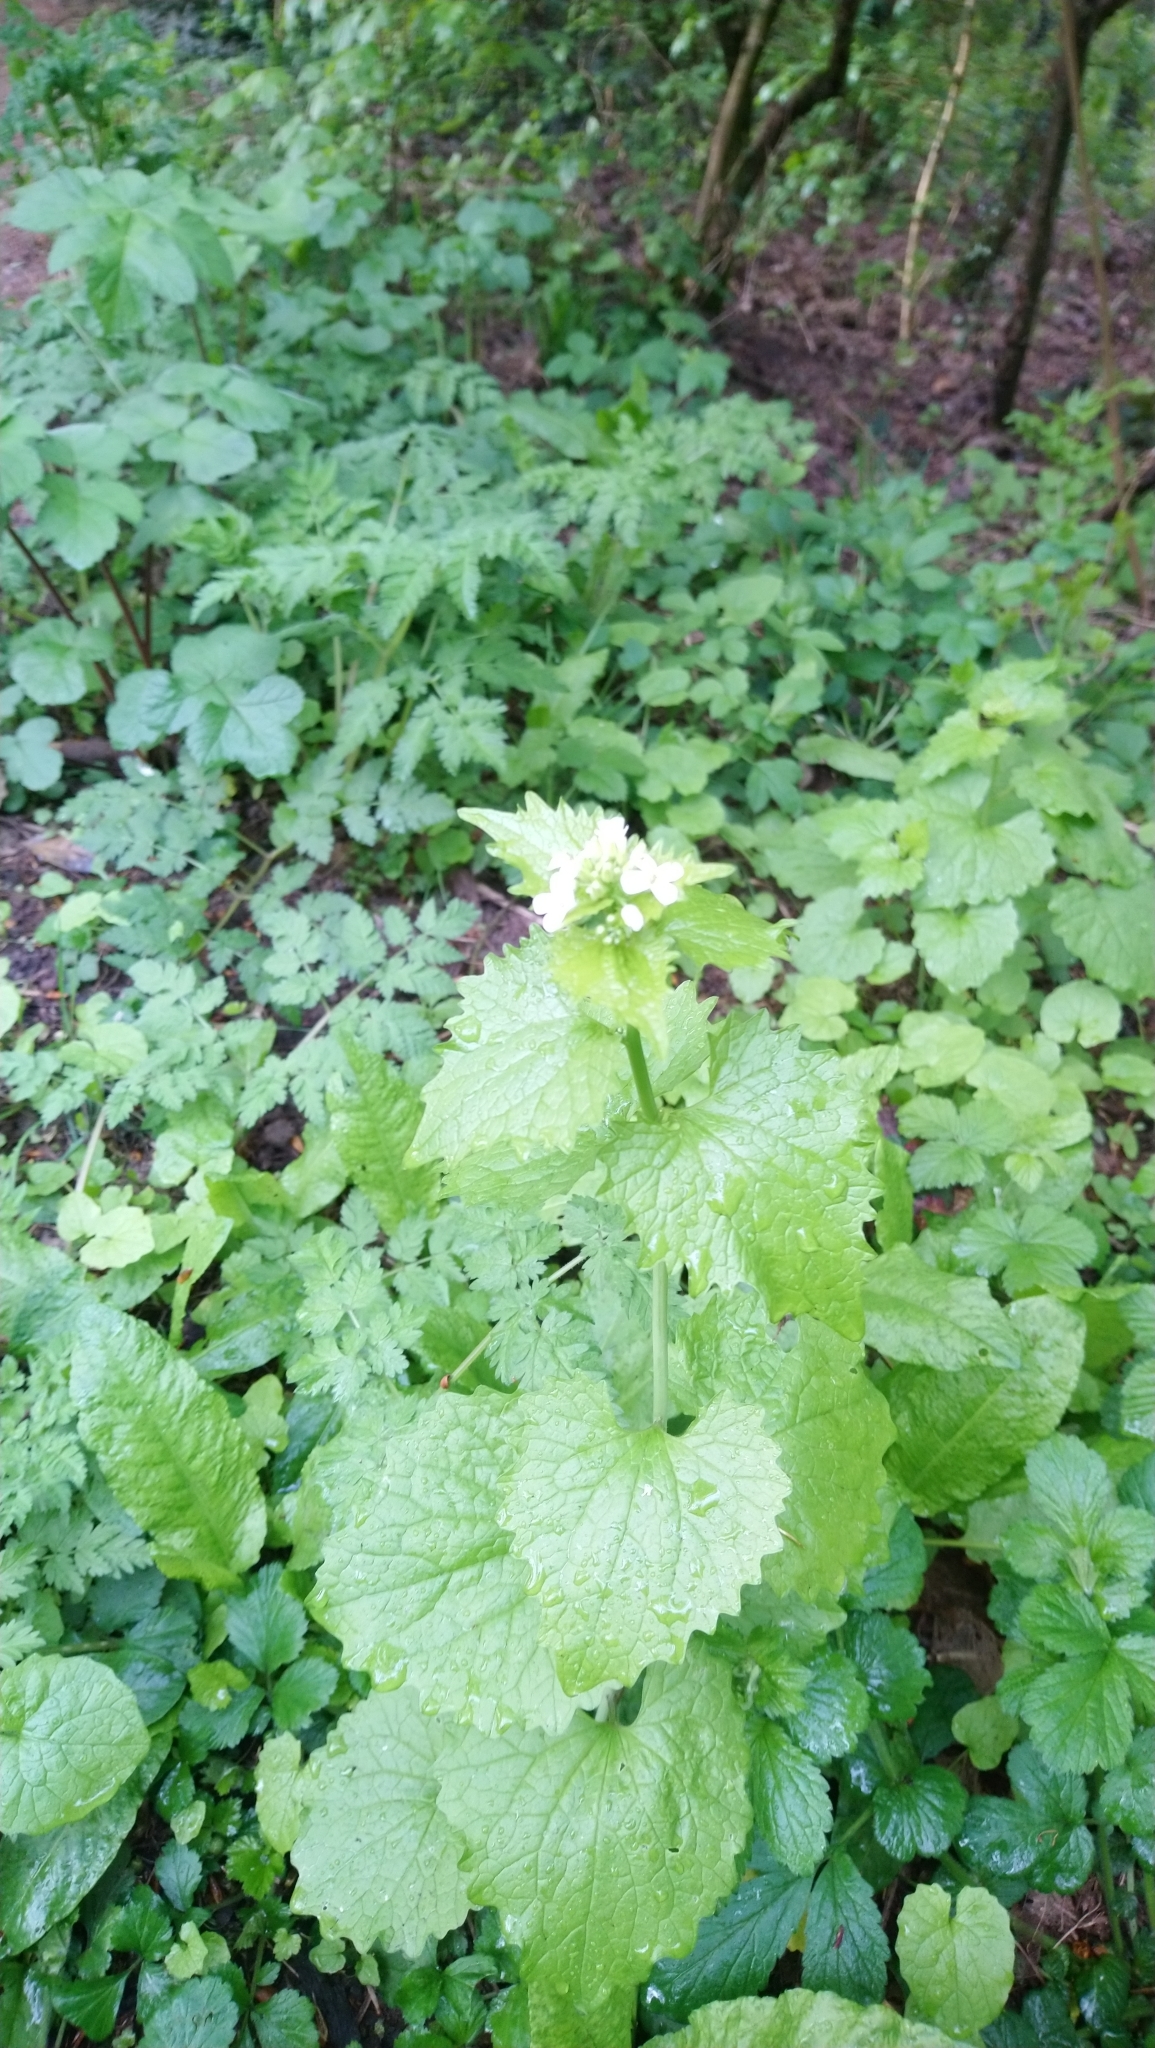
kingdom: Plantae
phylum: Tracheophyta
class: Magnoliopsida
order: Brassicales
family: Brassicaceae
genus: Alliaria
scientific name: Alliaria petiolata
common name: Garlic mustard
